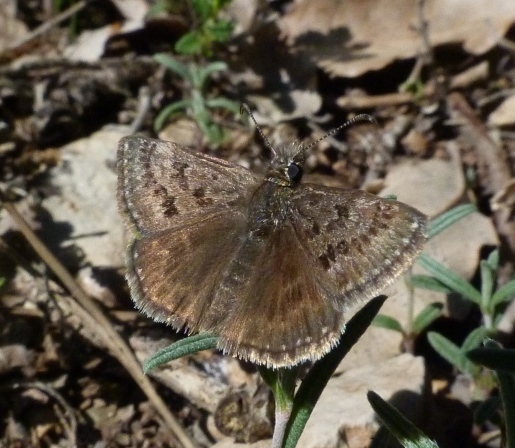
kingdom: Animalia
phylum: Arthropoda
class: Insecta
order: Lepidoptera
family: Hesperiidae
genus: Erynnis
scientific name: Erynnis tages
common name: Dingy skipper
